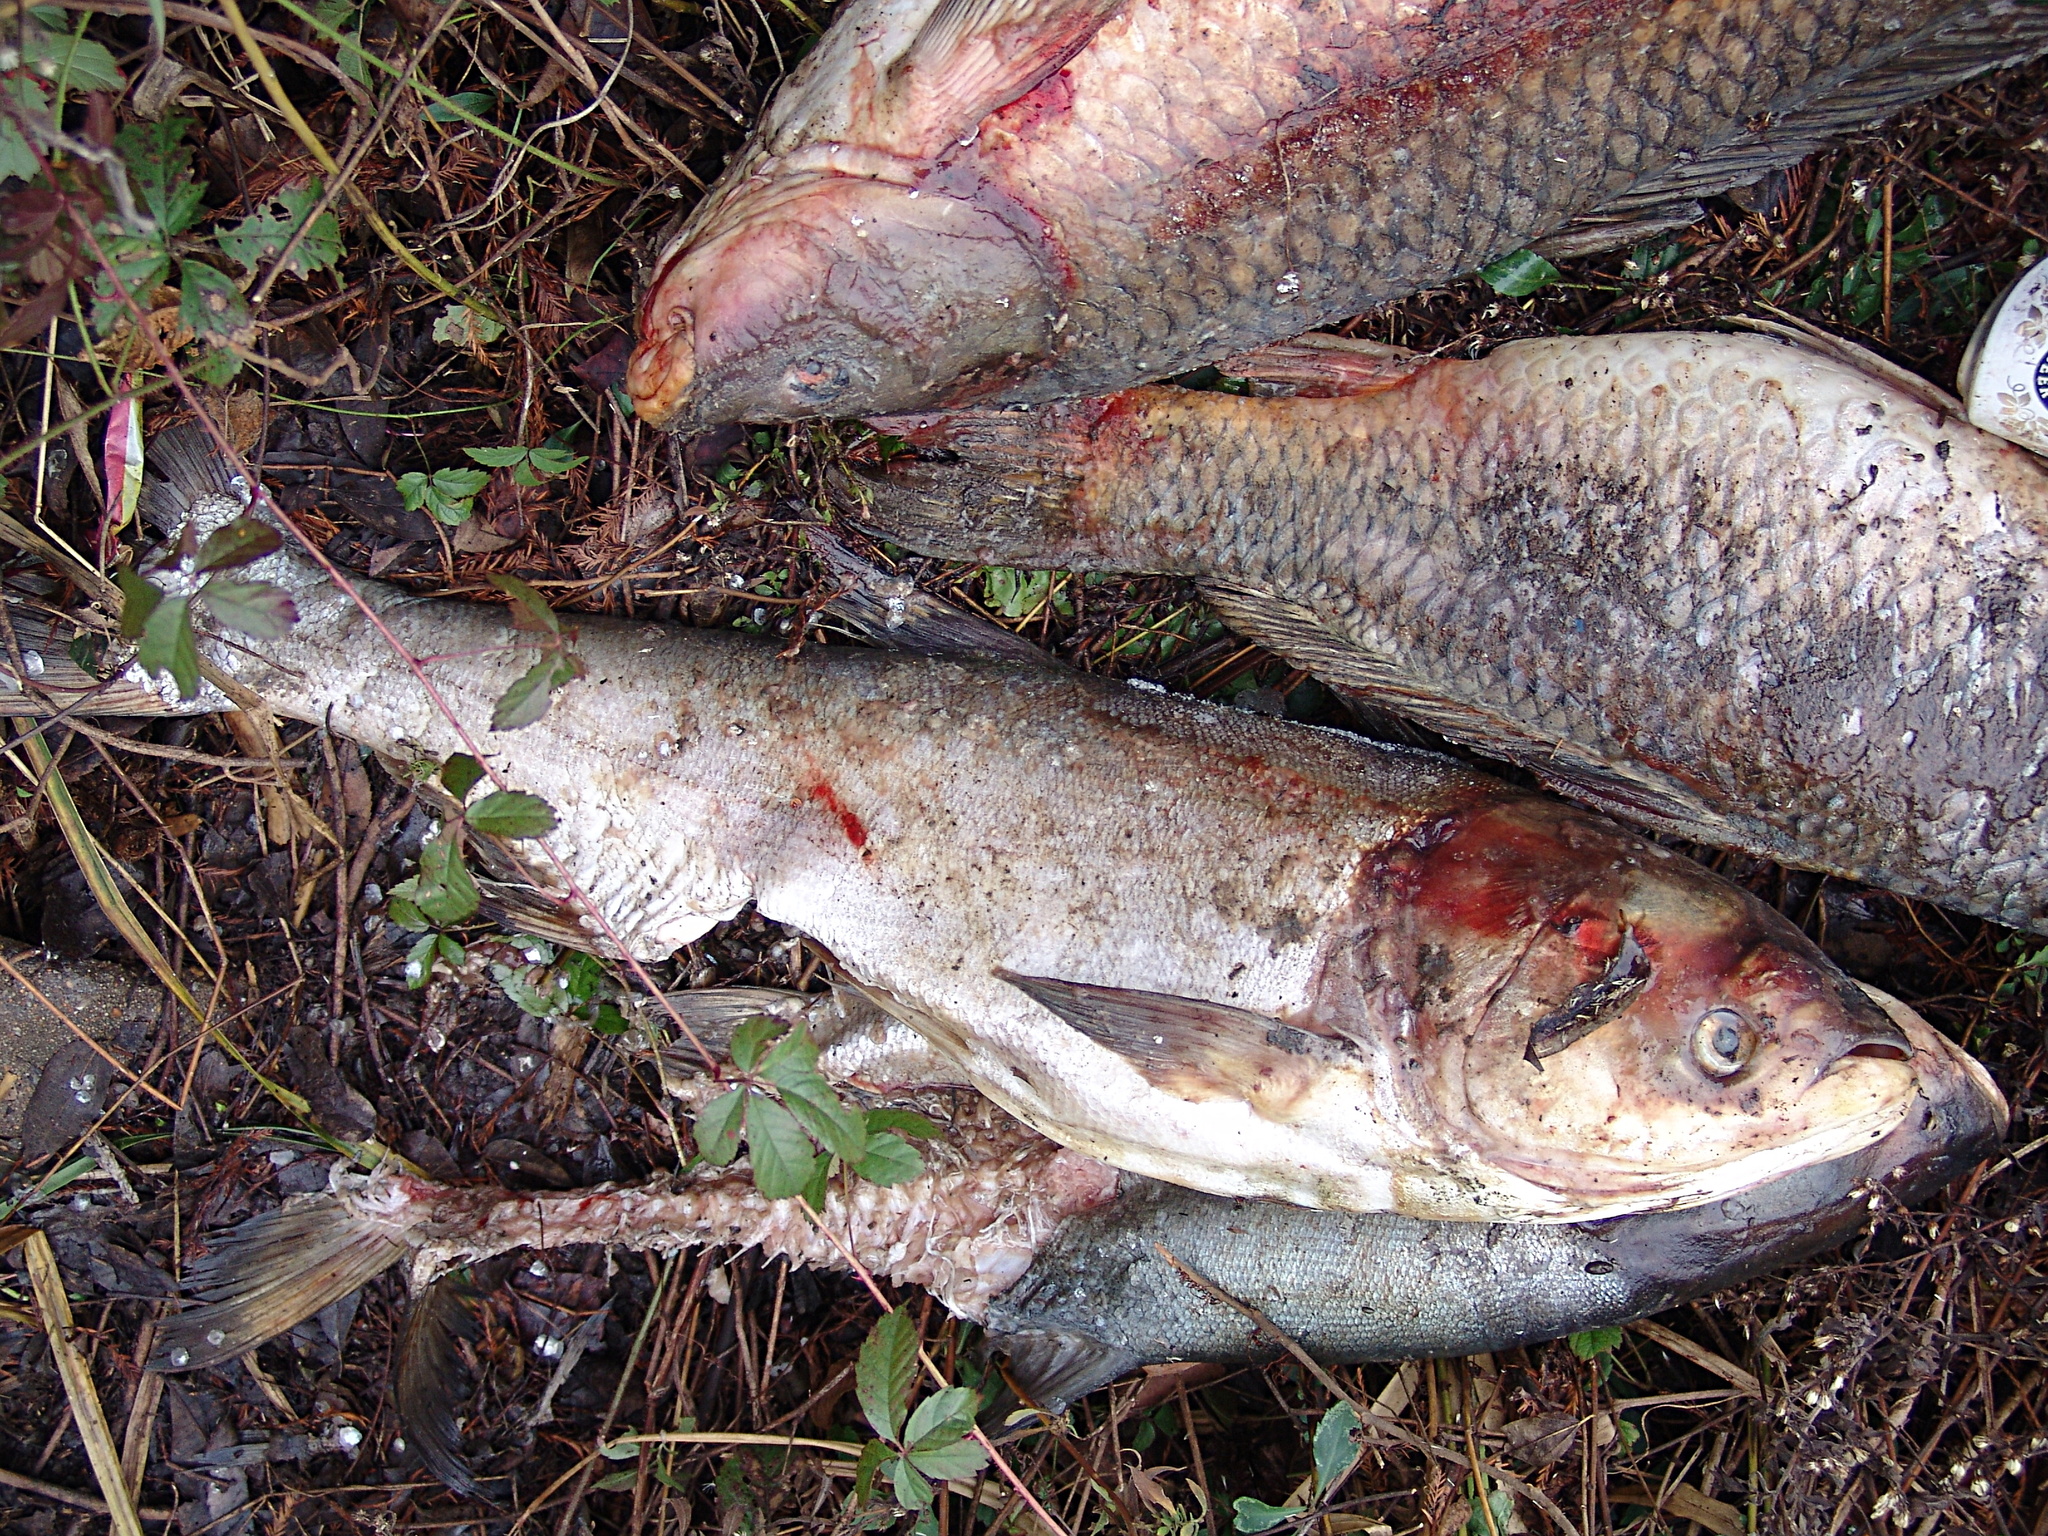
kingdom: Animalia
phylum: Chordata
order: Cypriniformes
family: Cyprinidae
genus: Hypophthalmichthys
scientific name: Hypophthalmichthys molitrix
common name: Silver carp
